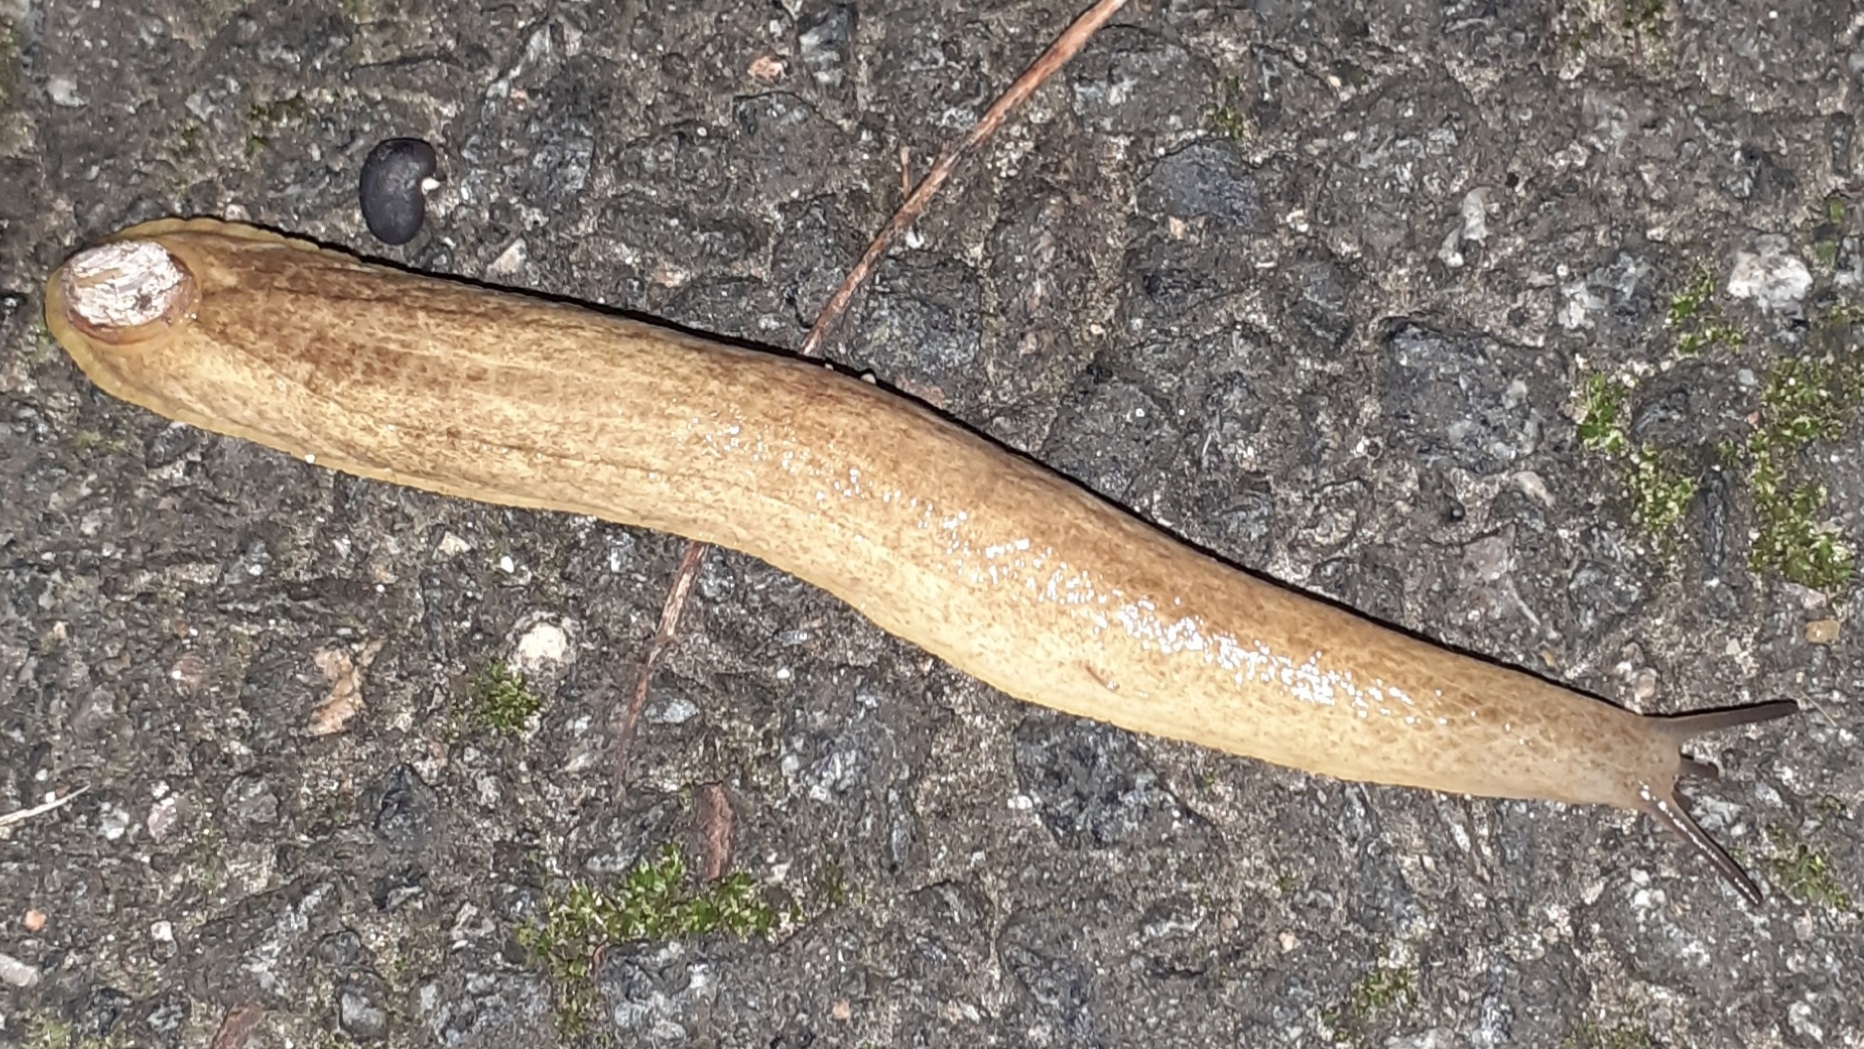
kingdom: Animalia
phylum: Mollusca
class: Gastropoda
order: Stylommatophora
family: Testacellidae
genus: Testacella
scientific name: Testacella haliotidea
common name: Shelled slug
